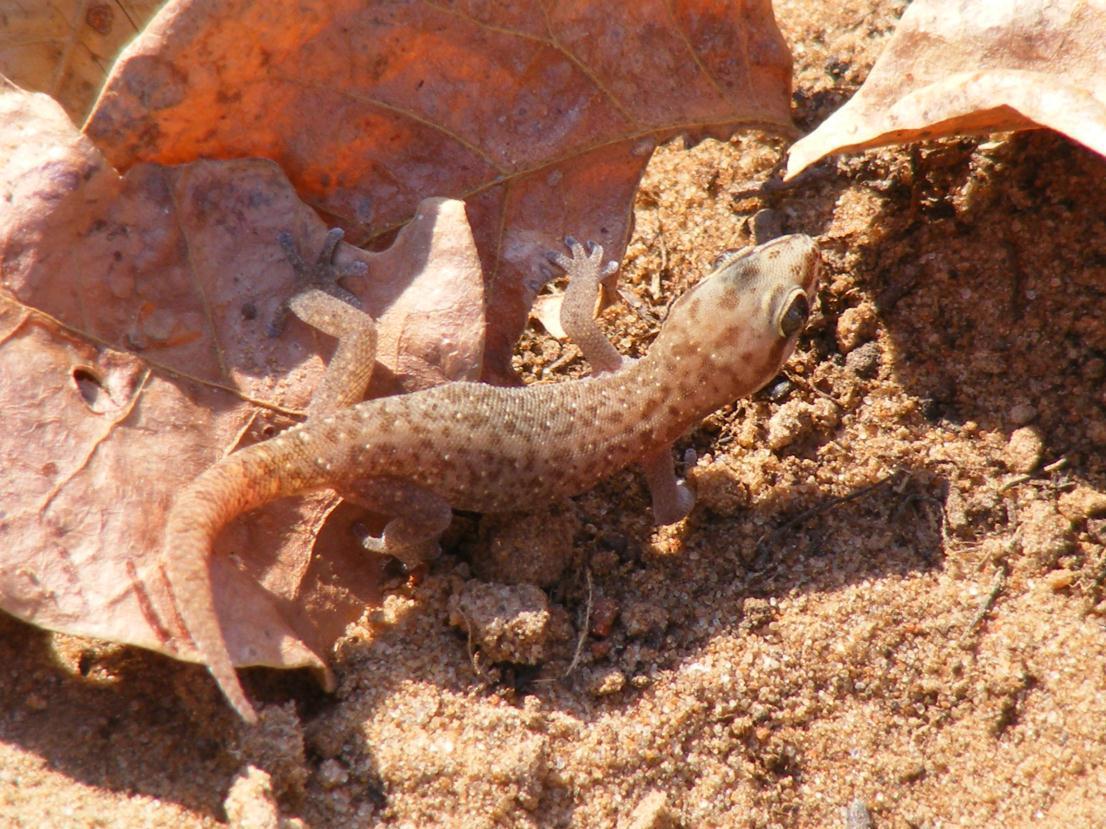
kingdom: Animalia
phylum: Chordata
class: Squamata
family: Gekkonidae
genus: Pachydactylus
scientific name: Pachydactylus punctatus
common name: Pointed thick-toed gecko
